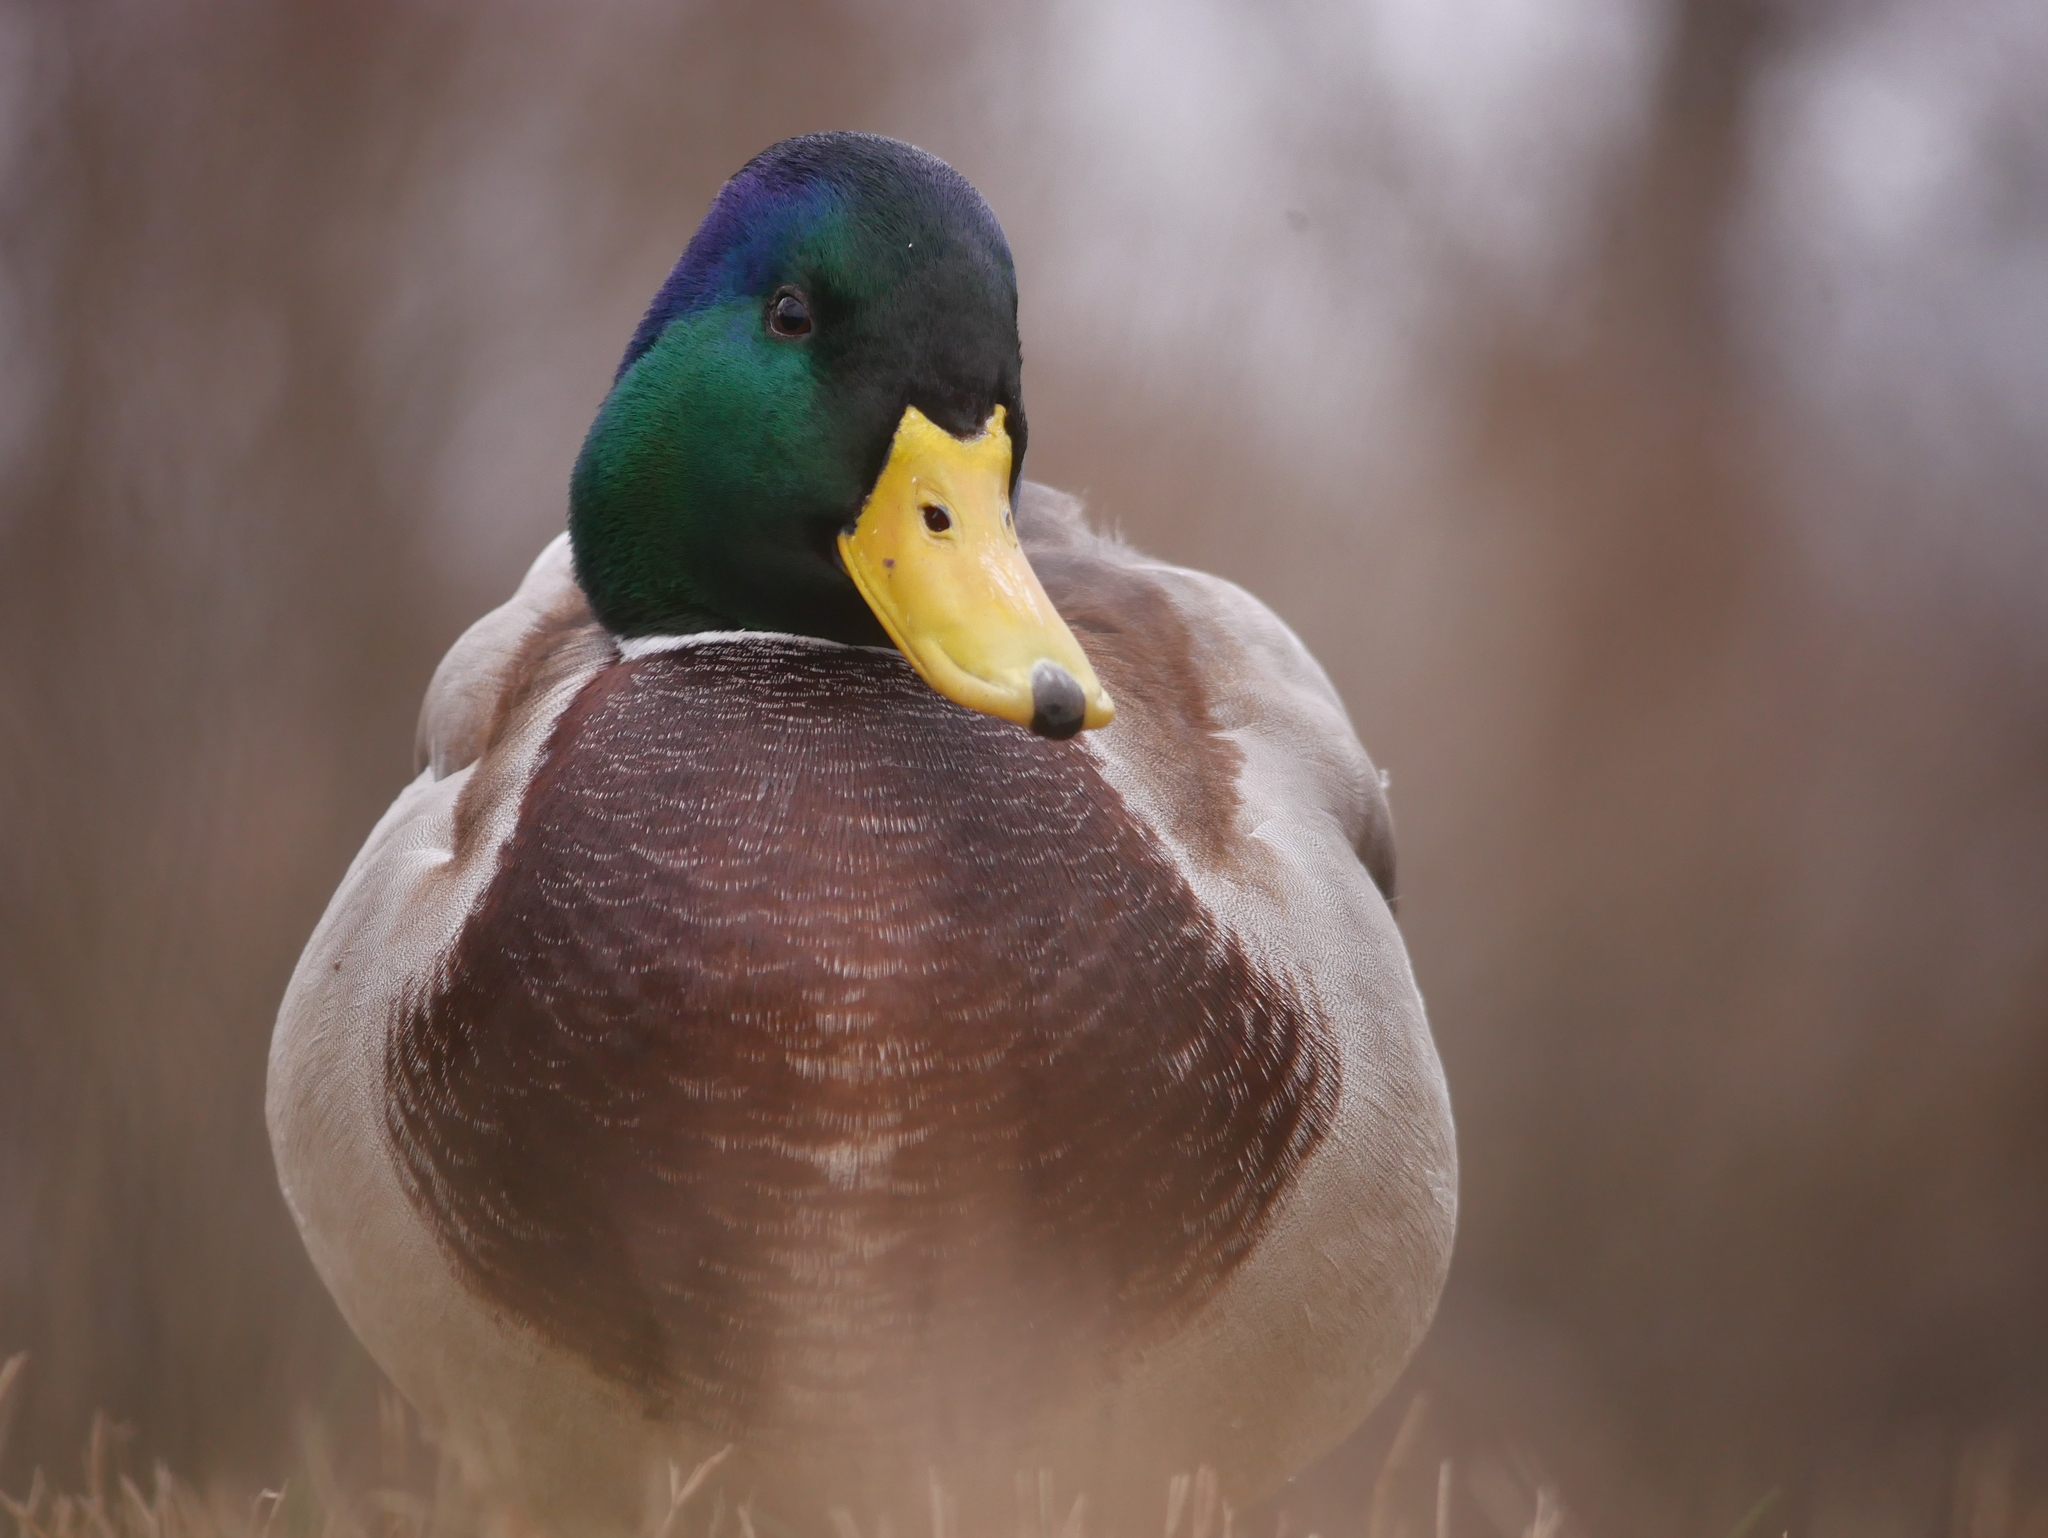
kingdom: Animalia
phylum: Chordata
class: Aves
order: Anseriformes
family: Anatidae
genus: Anas
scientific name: Anas platyrhynchos
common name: Mallard
